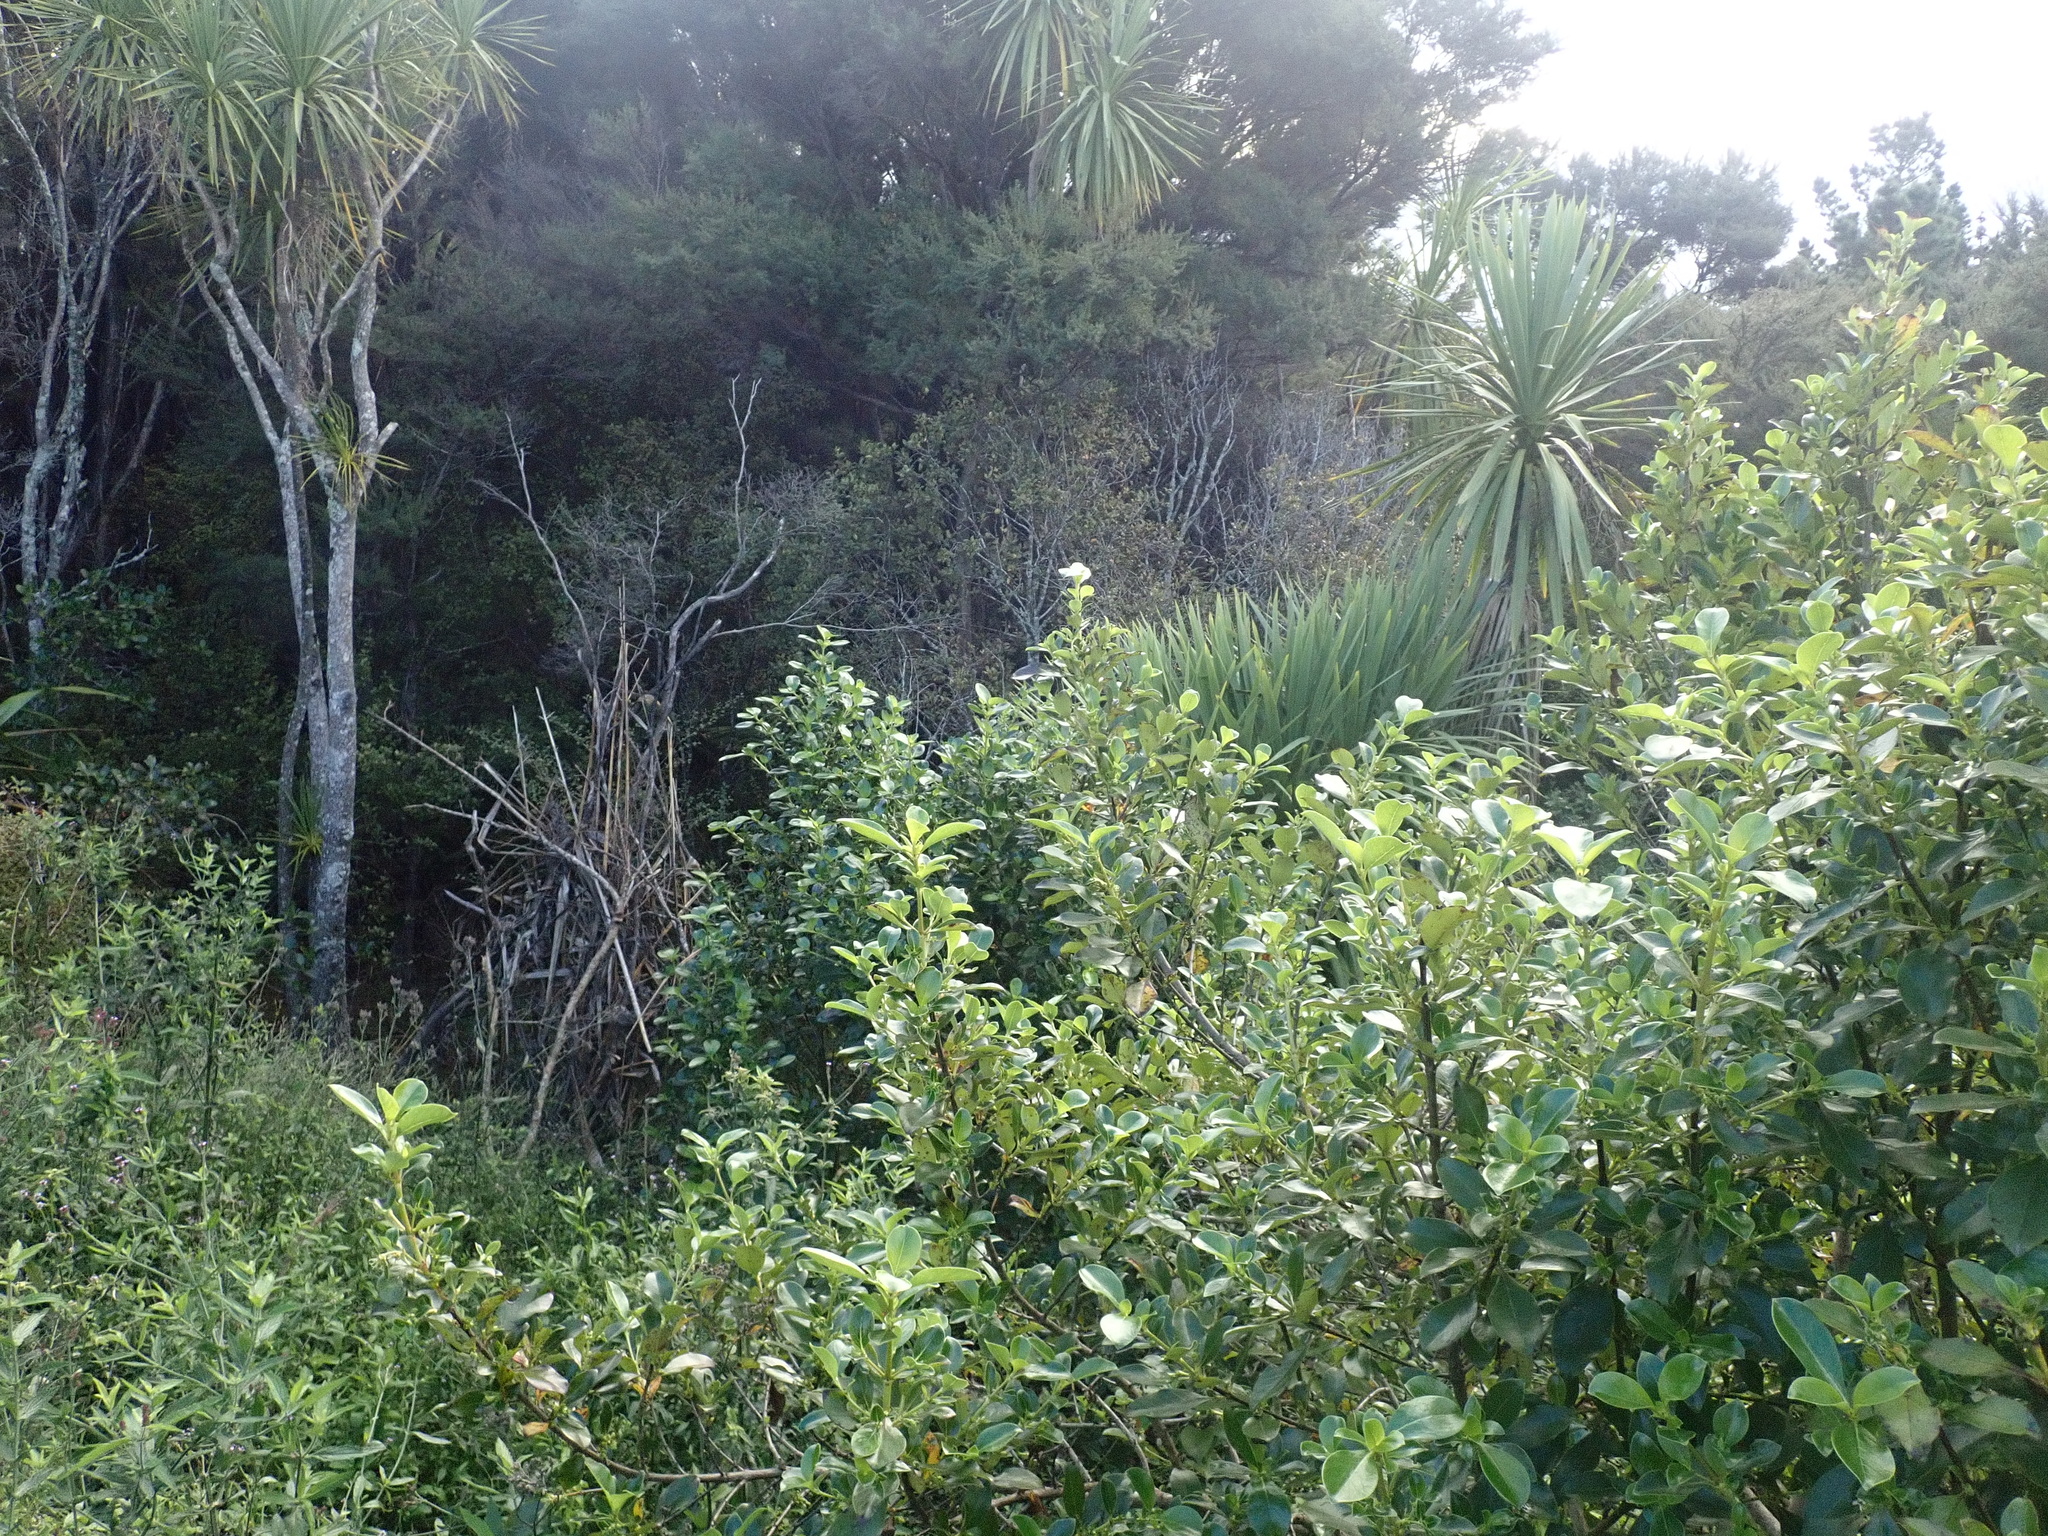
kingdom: Plantae
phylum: Tracheophyta
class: Magnoliopsida
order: Gentianales
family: Rubiaceae
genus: Coprosma
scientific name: Coprosma robusta
